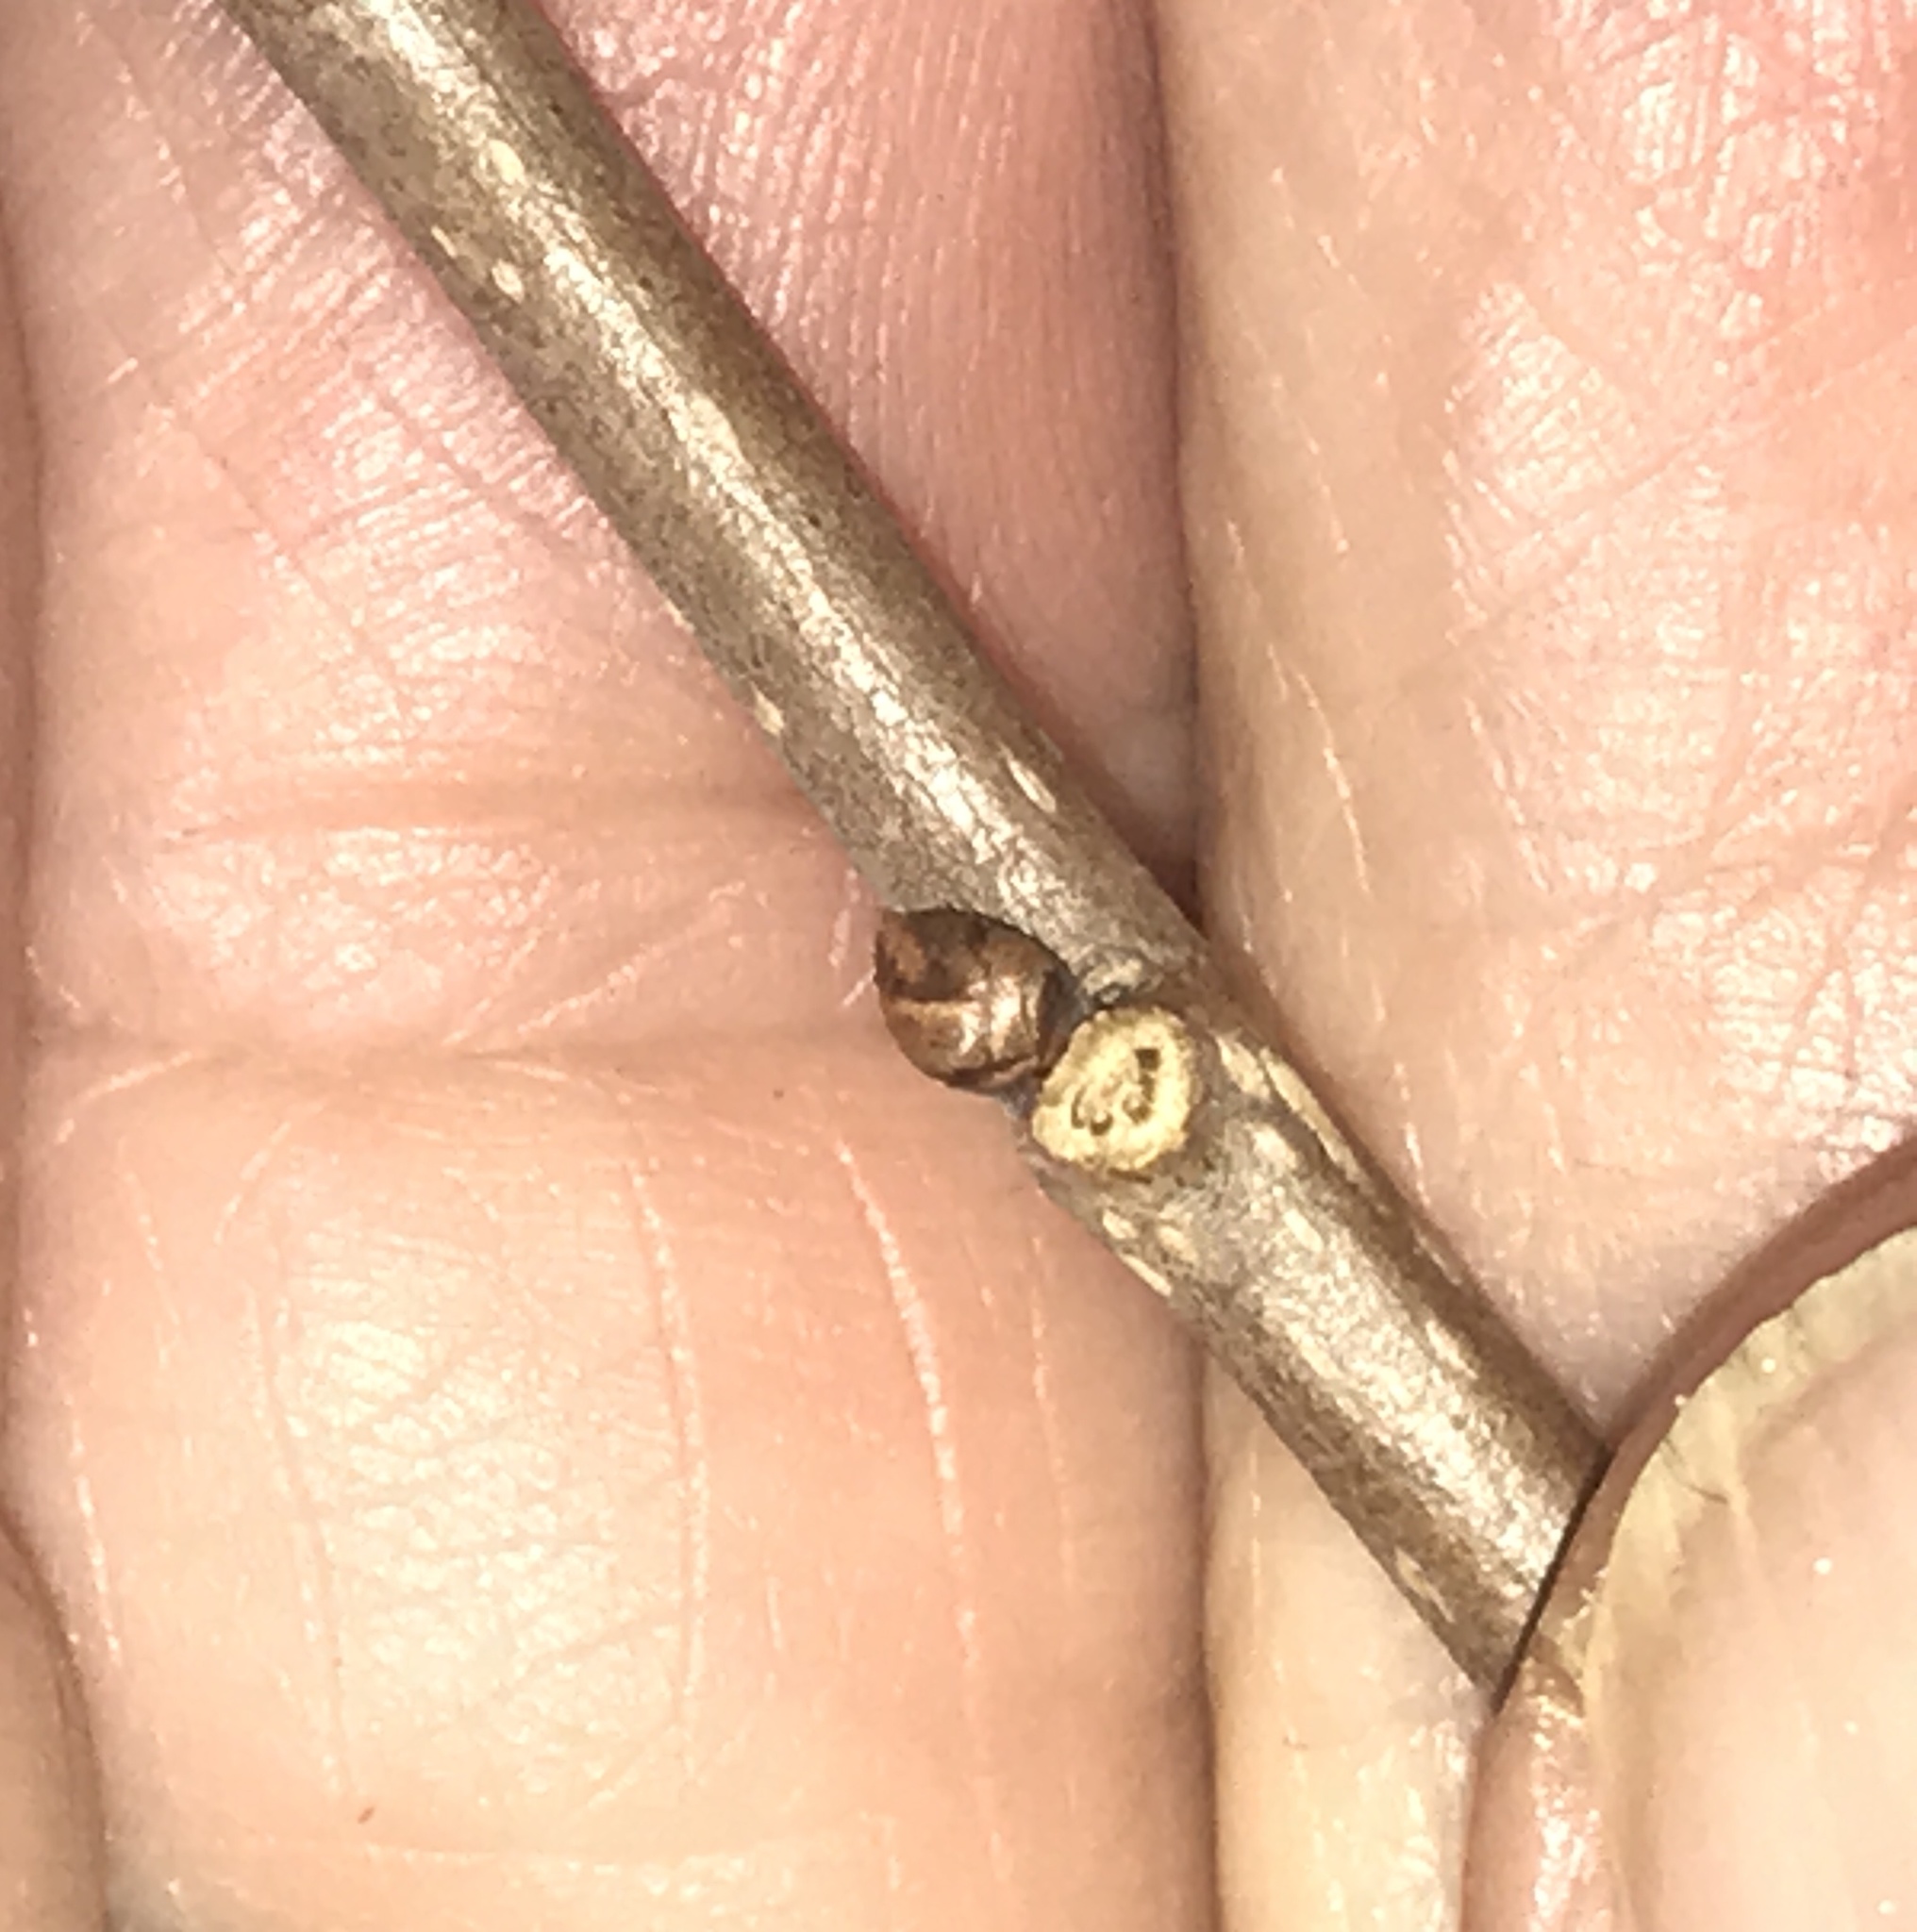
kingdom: Plantae
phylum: Tracheophyta
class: Magnoliopsida
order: Rosales
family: Moraceae
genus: Morus
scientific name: Morus alba
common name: White mulberry
